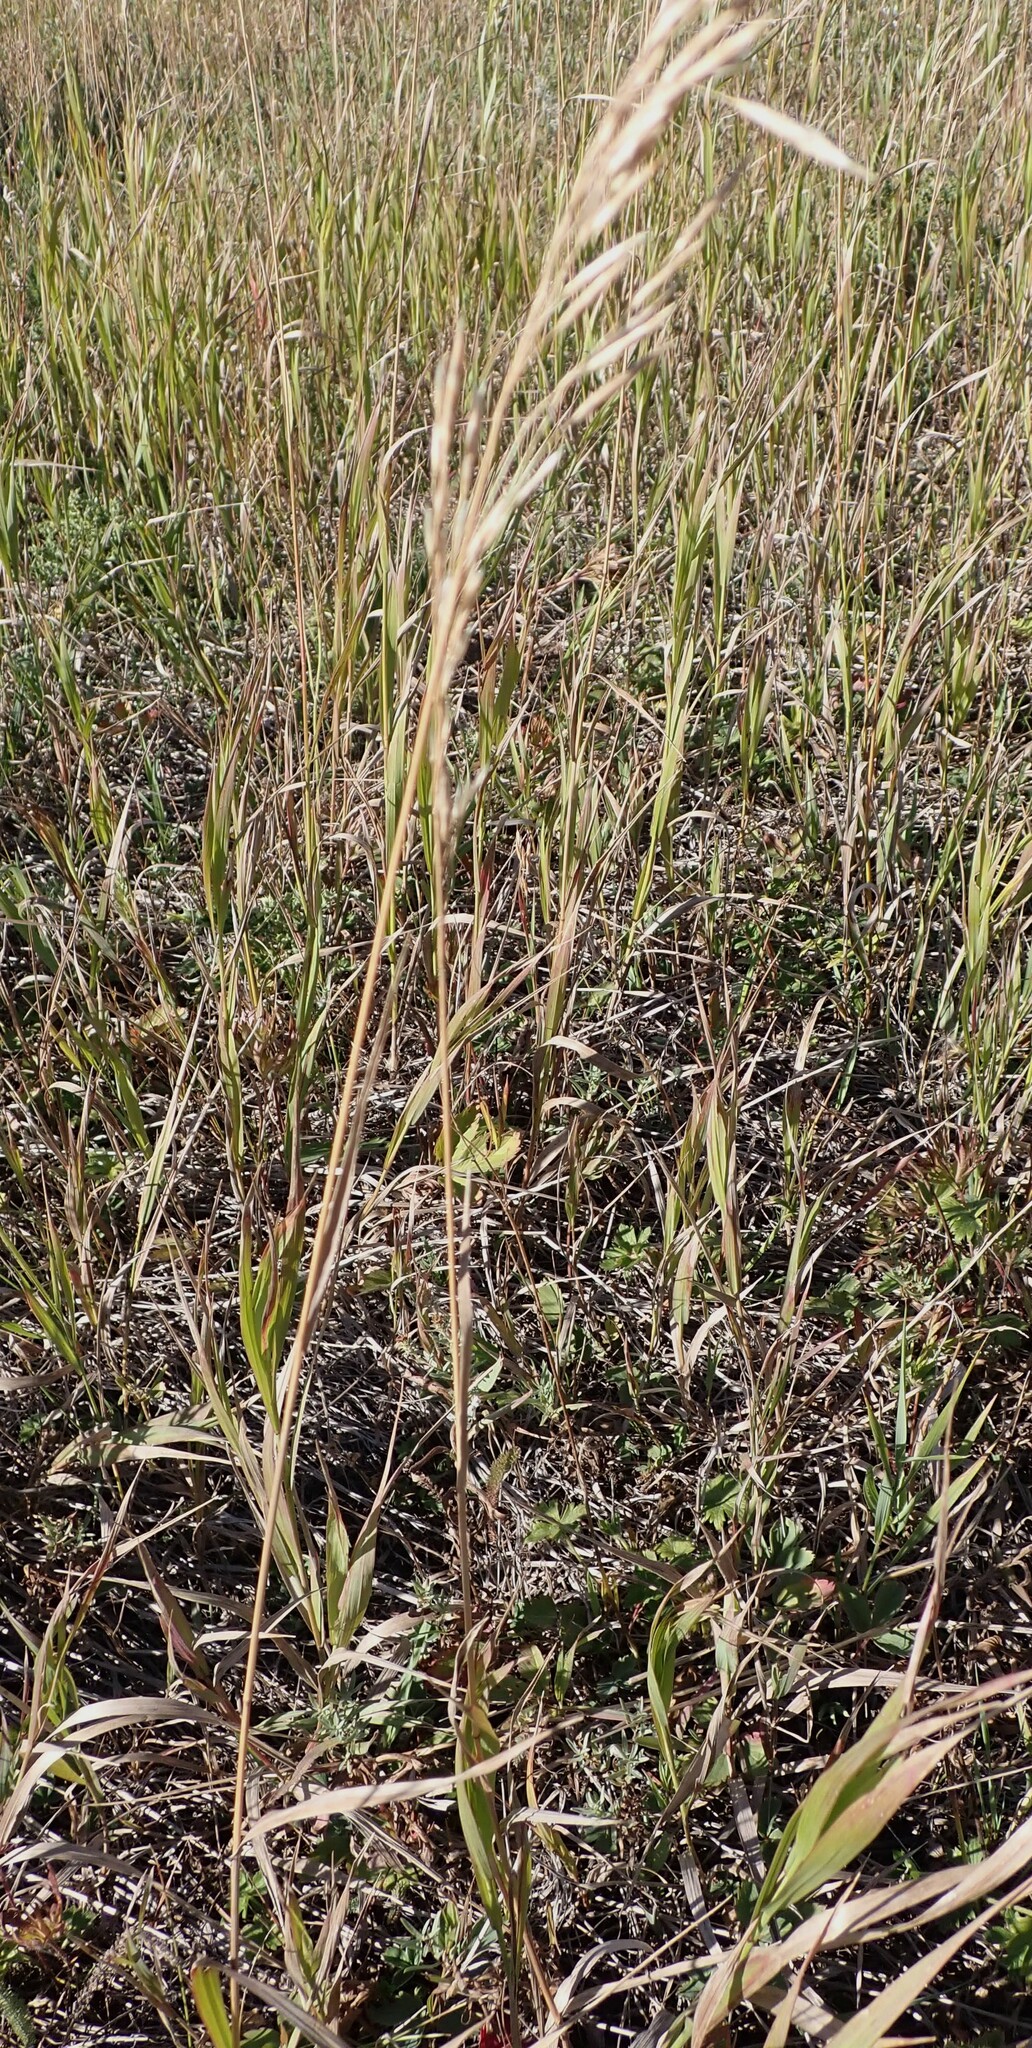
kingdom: Plantae
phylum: Tracheophyta
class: Liliopsida
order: Poales
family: Poaceae
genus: Bromus
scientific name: Bromus inermis
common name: Smooth brome
